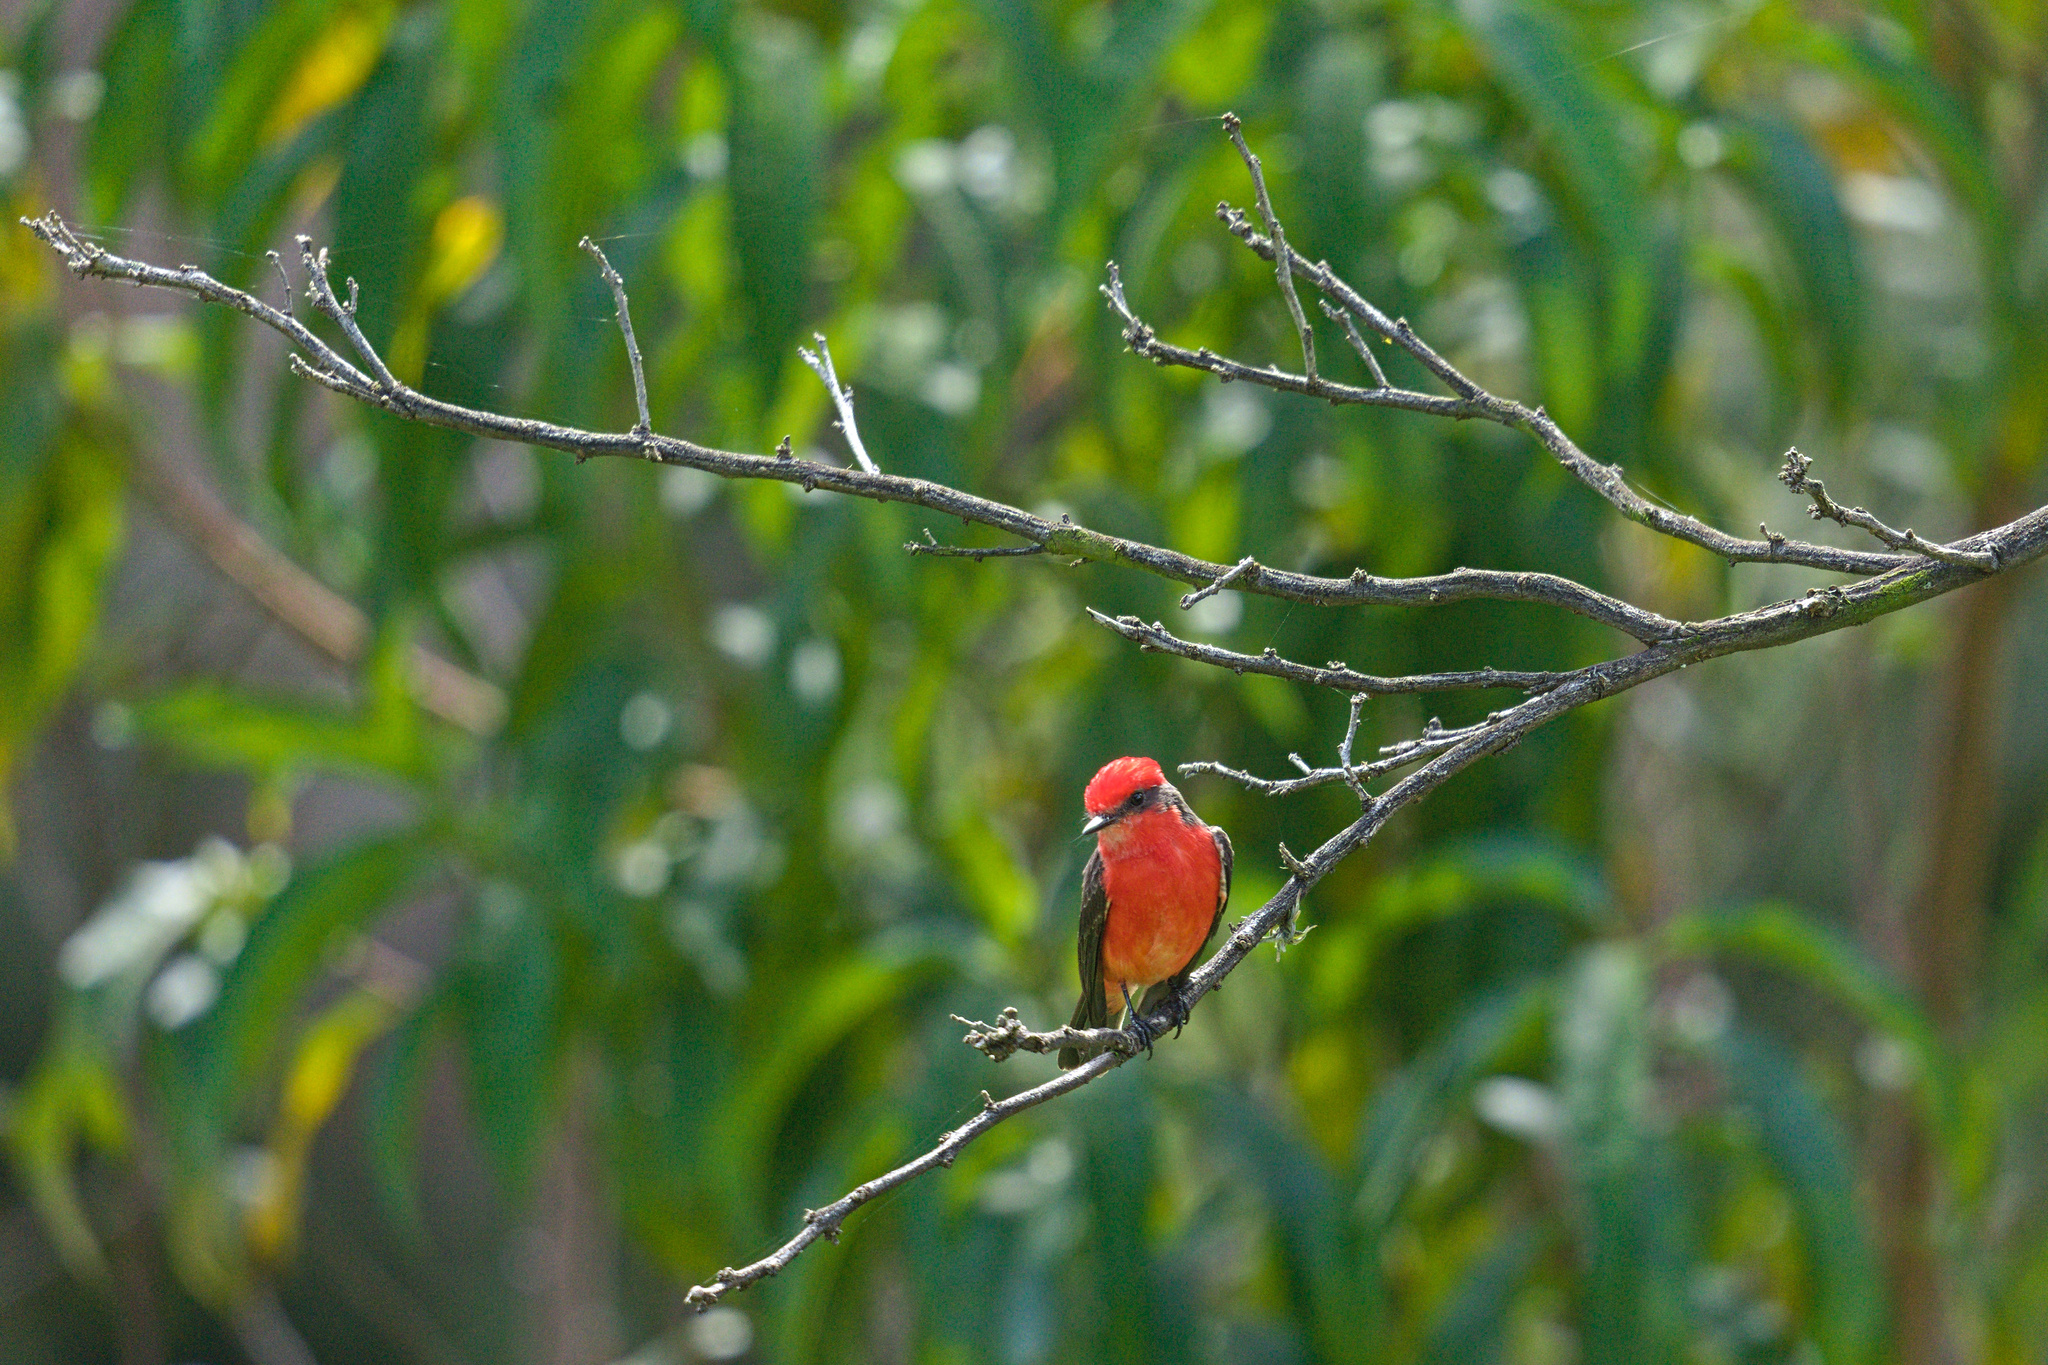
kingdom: Animalia
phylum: Chordata
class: Aves
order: Passeriformes
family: Tyrannidae
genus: Pyrocephalus
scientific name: Pyrocephalus rubinus
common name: Vermilion flycatcher
